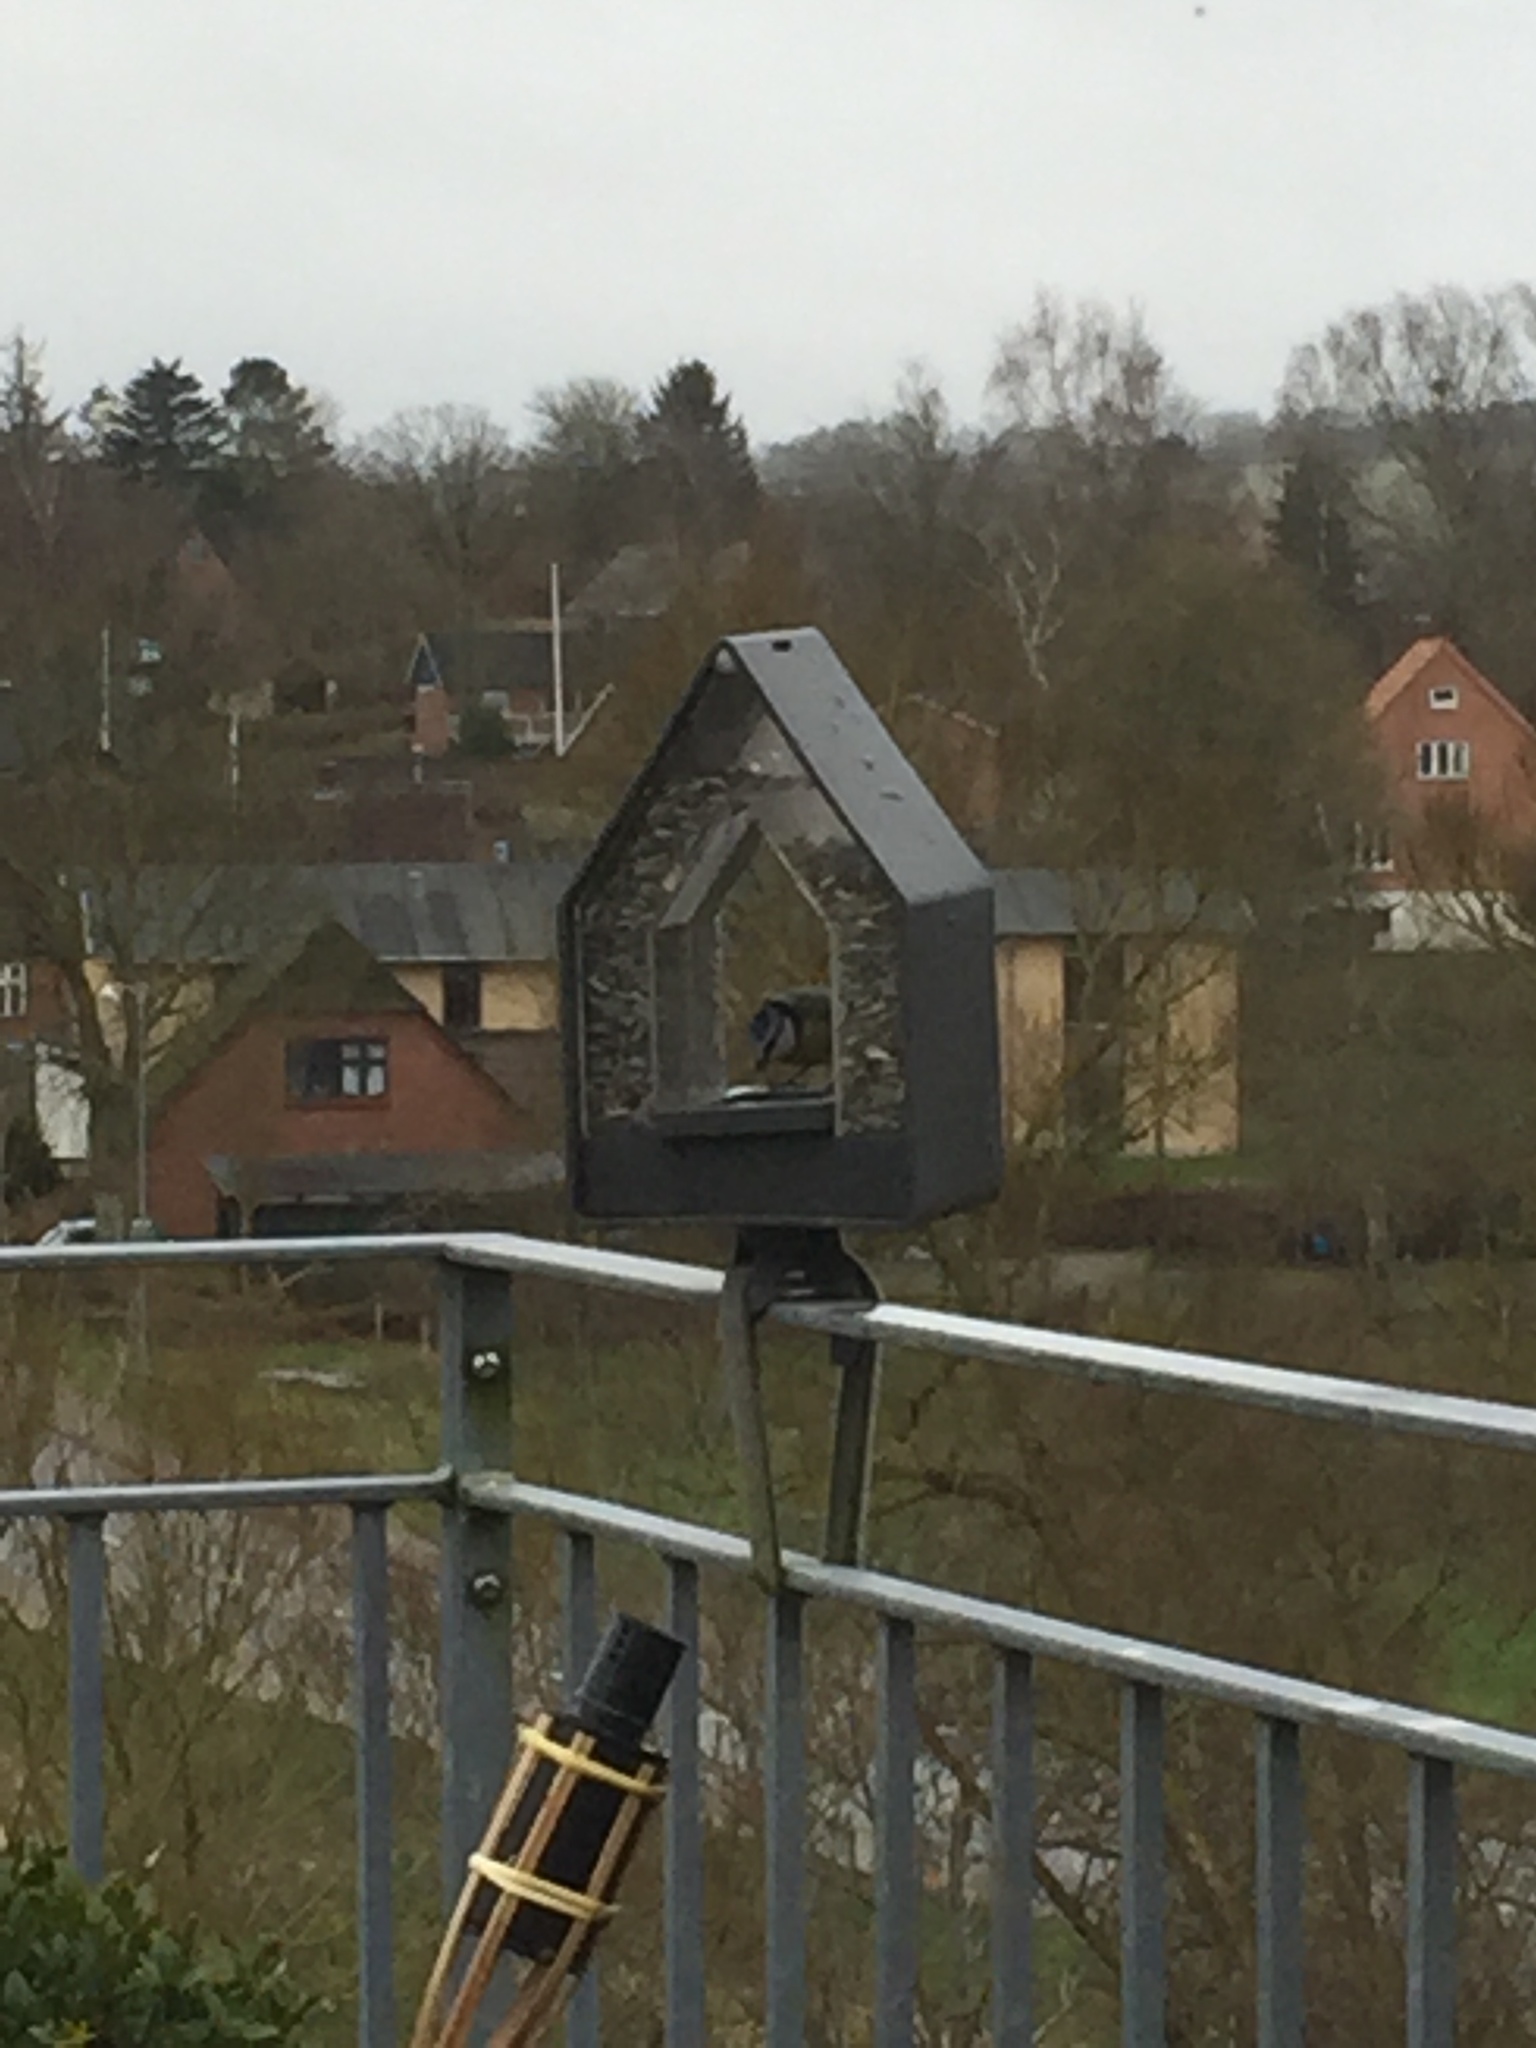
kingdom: Animalia
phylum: Chordata
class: Aves
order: Passeriformes
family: Paridae
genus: Cyanistes
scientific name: Cyanistes caeruleus
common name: Eurasian blue tit
